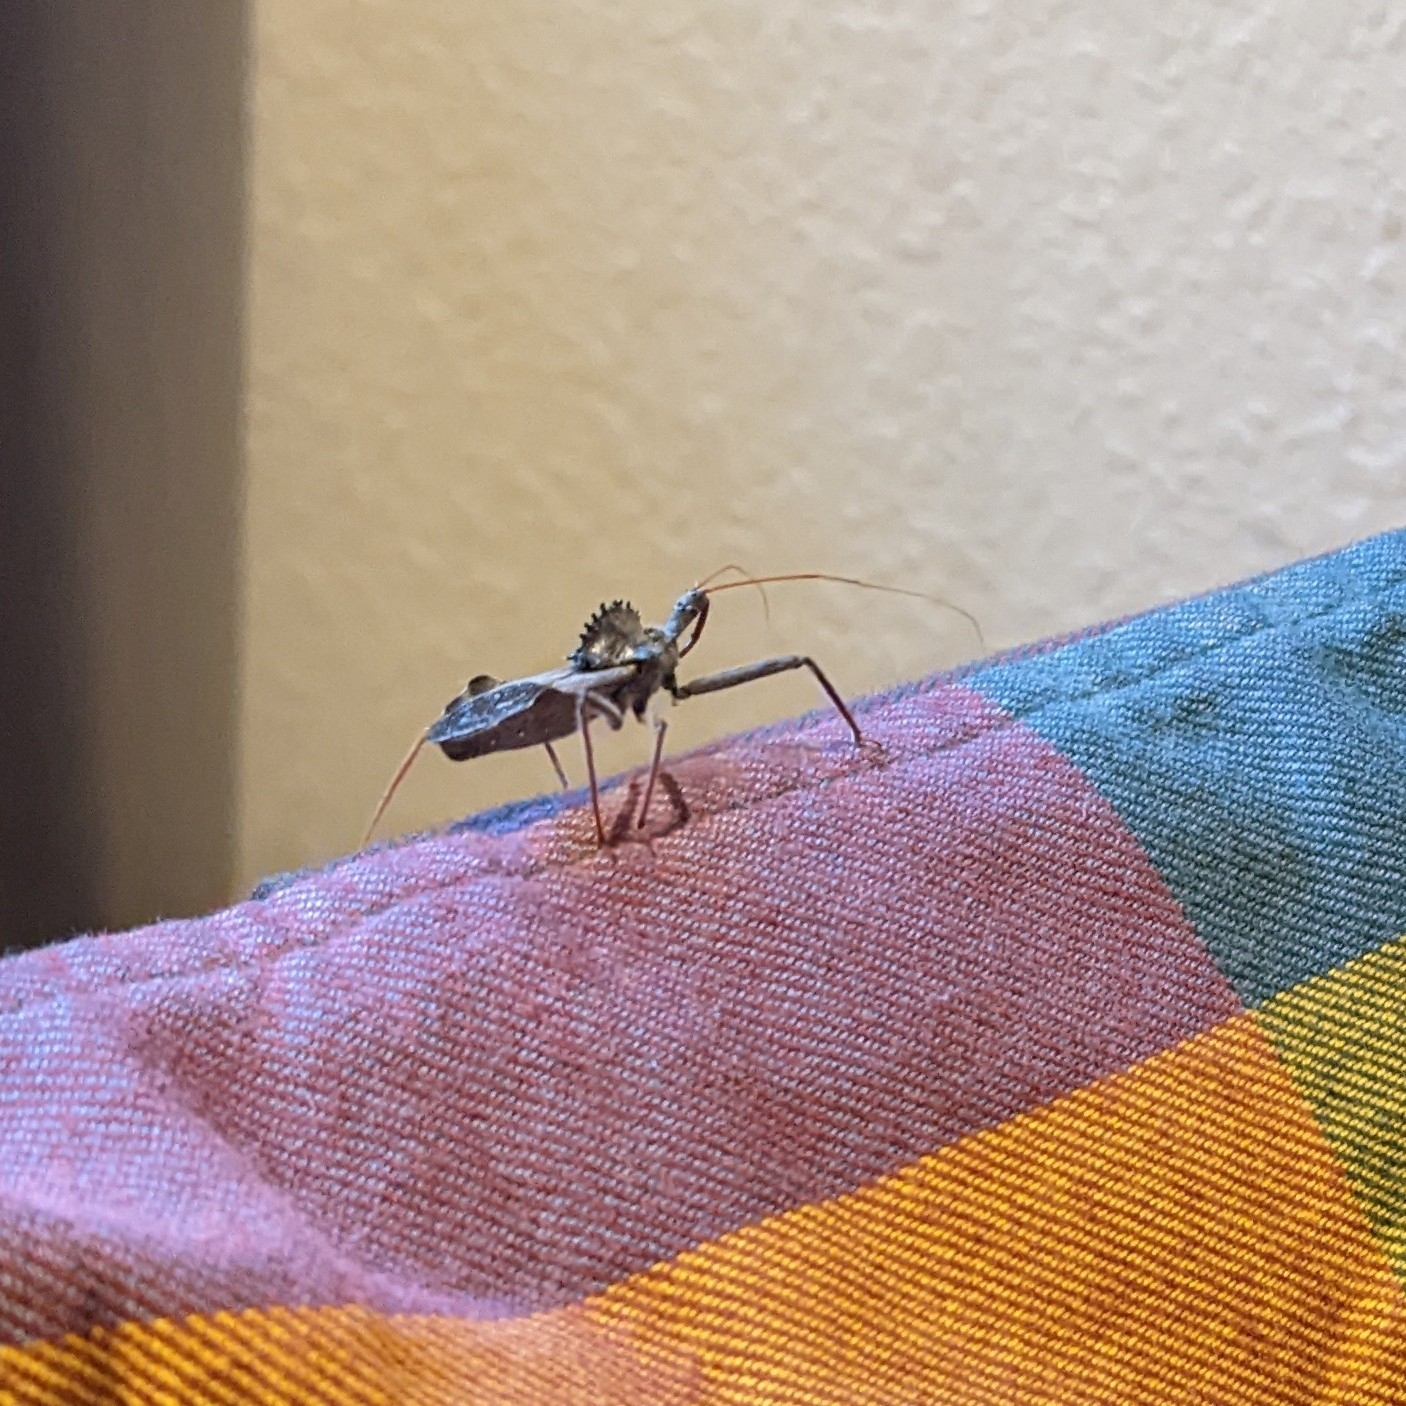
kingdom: Animalia
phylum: Arthropoda
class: Insecta
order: Hemiptera
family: Reduviidae
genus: Arilus
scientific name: Arilus cristatus
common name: North american wheel bug
